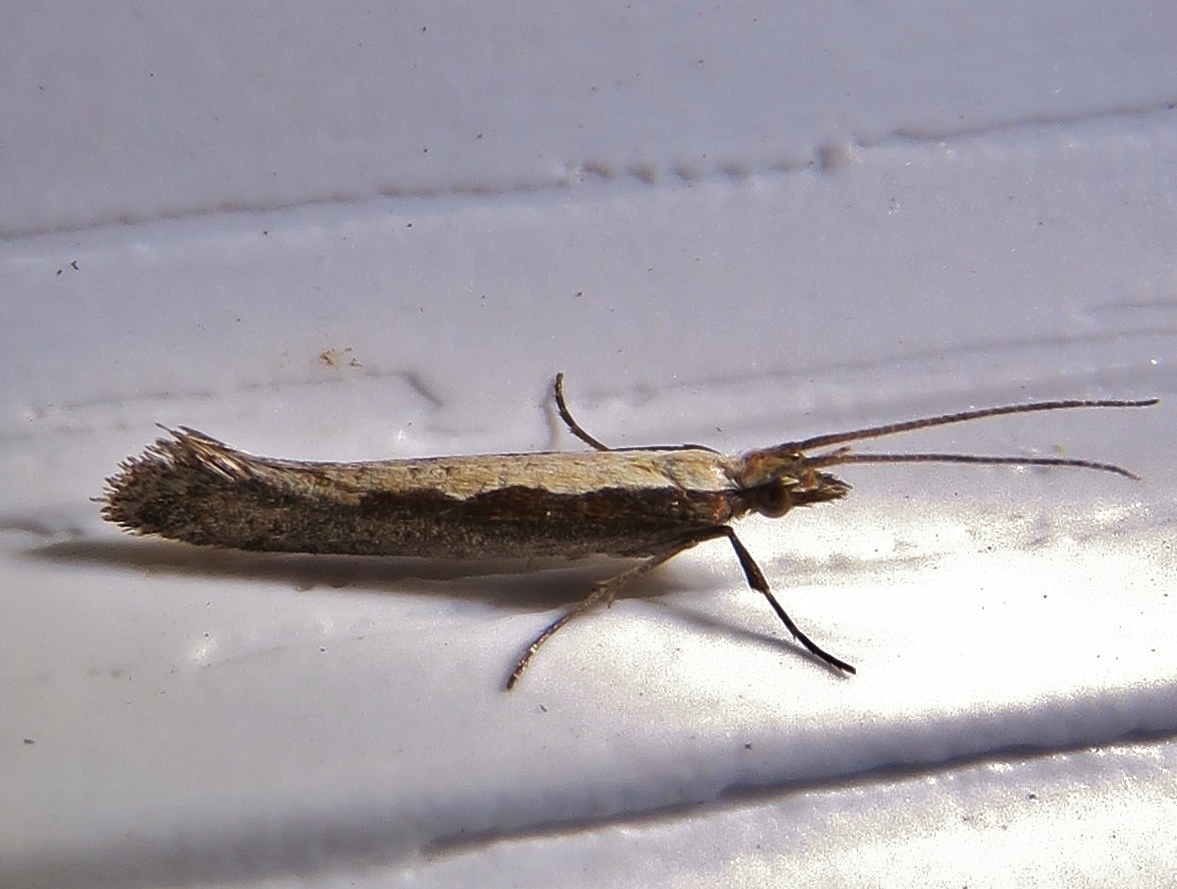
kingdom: Animalia
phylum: Arthropoda
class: Insecta
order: Lepidoptera
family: Plutellidae
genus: Plutella
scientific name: Plutella xylostella
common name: Diamond-back moth
